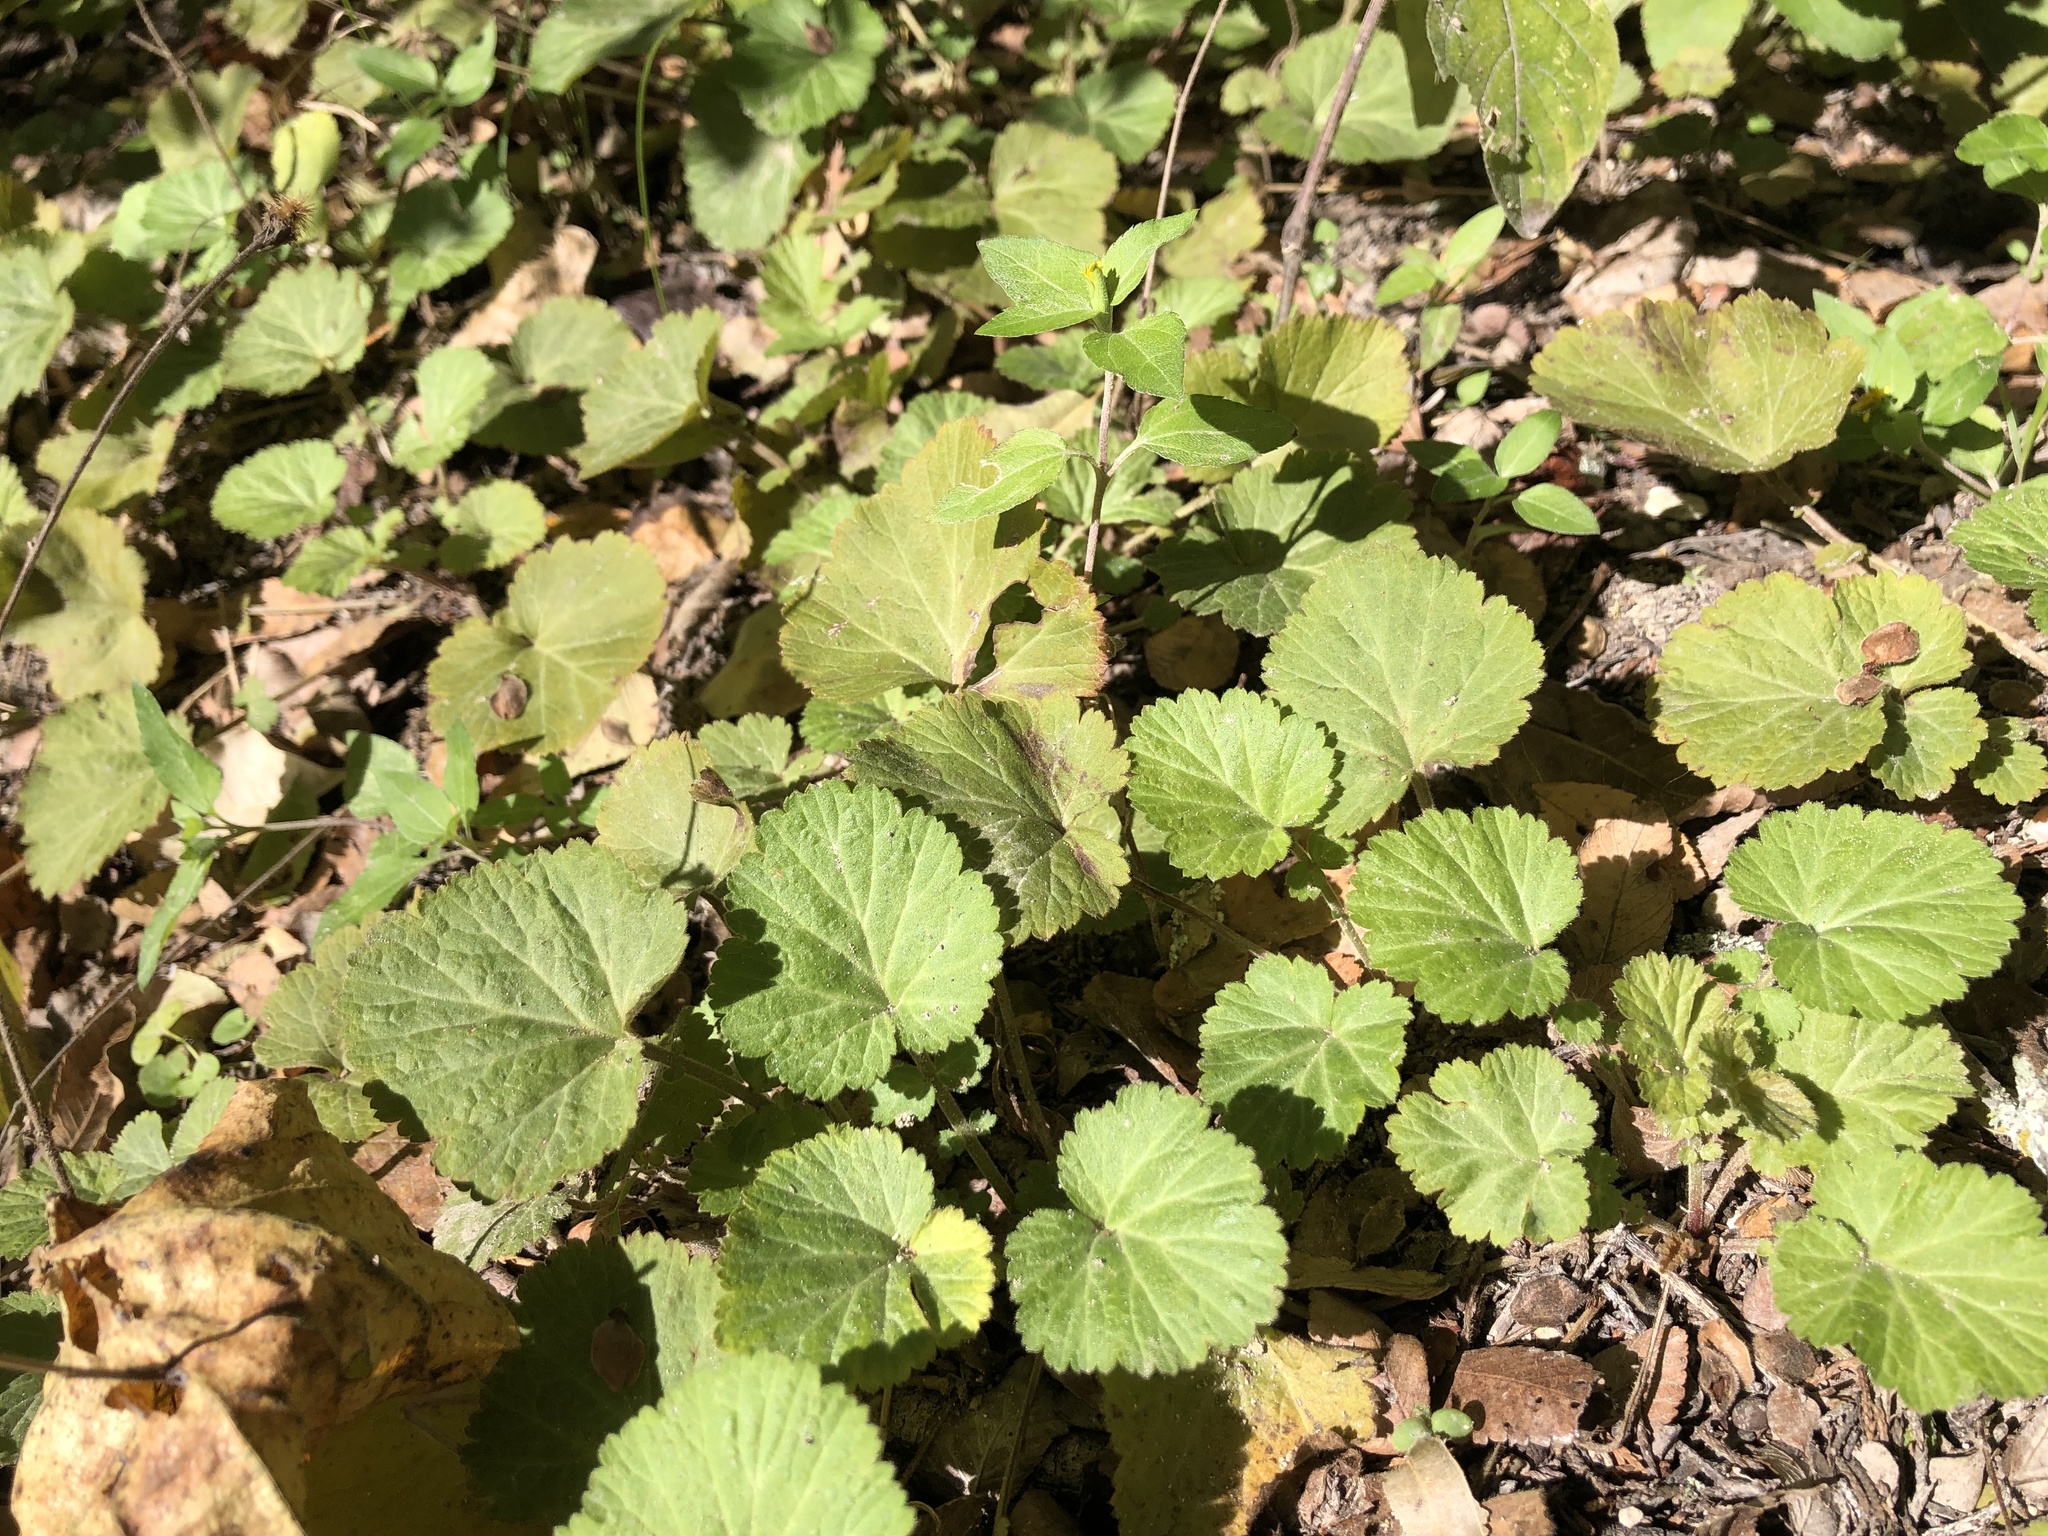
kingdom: Plantae
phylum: Tracheophyta
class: Magnoliopsida
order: Rosales
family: Rosaceae
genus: Geum
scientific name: Geum canadense
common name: White avens
